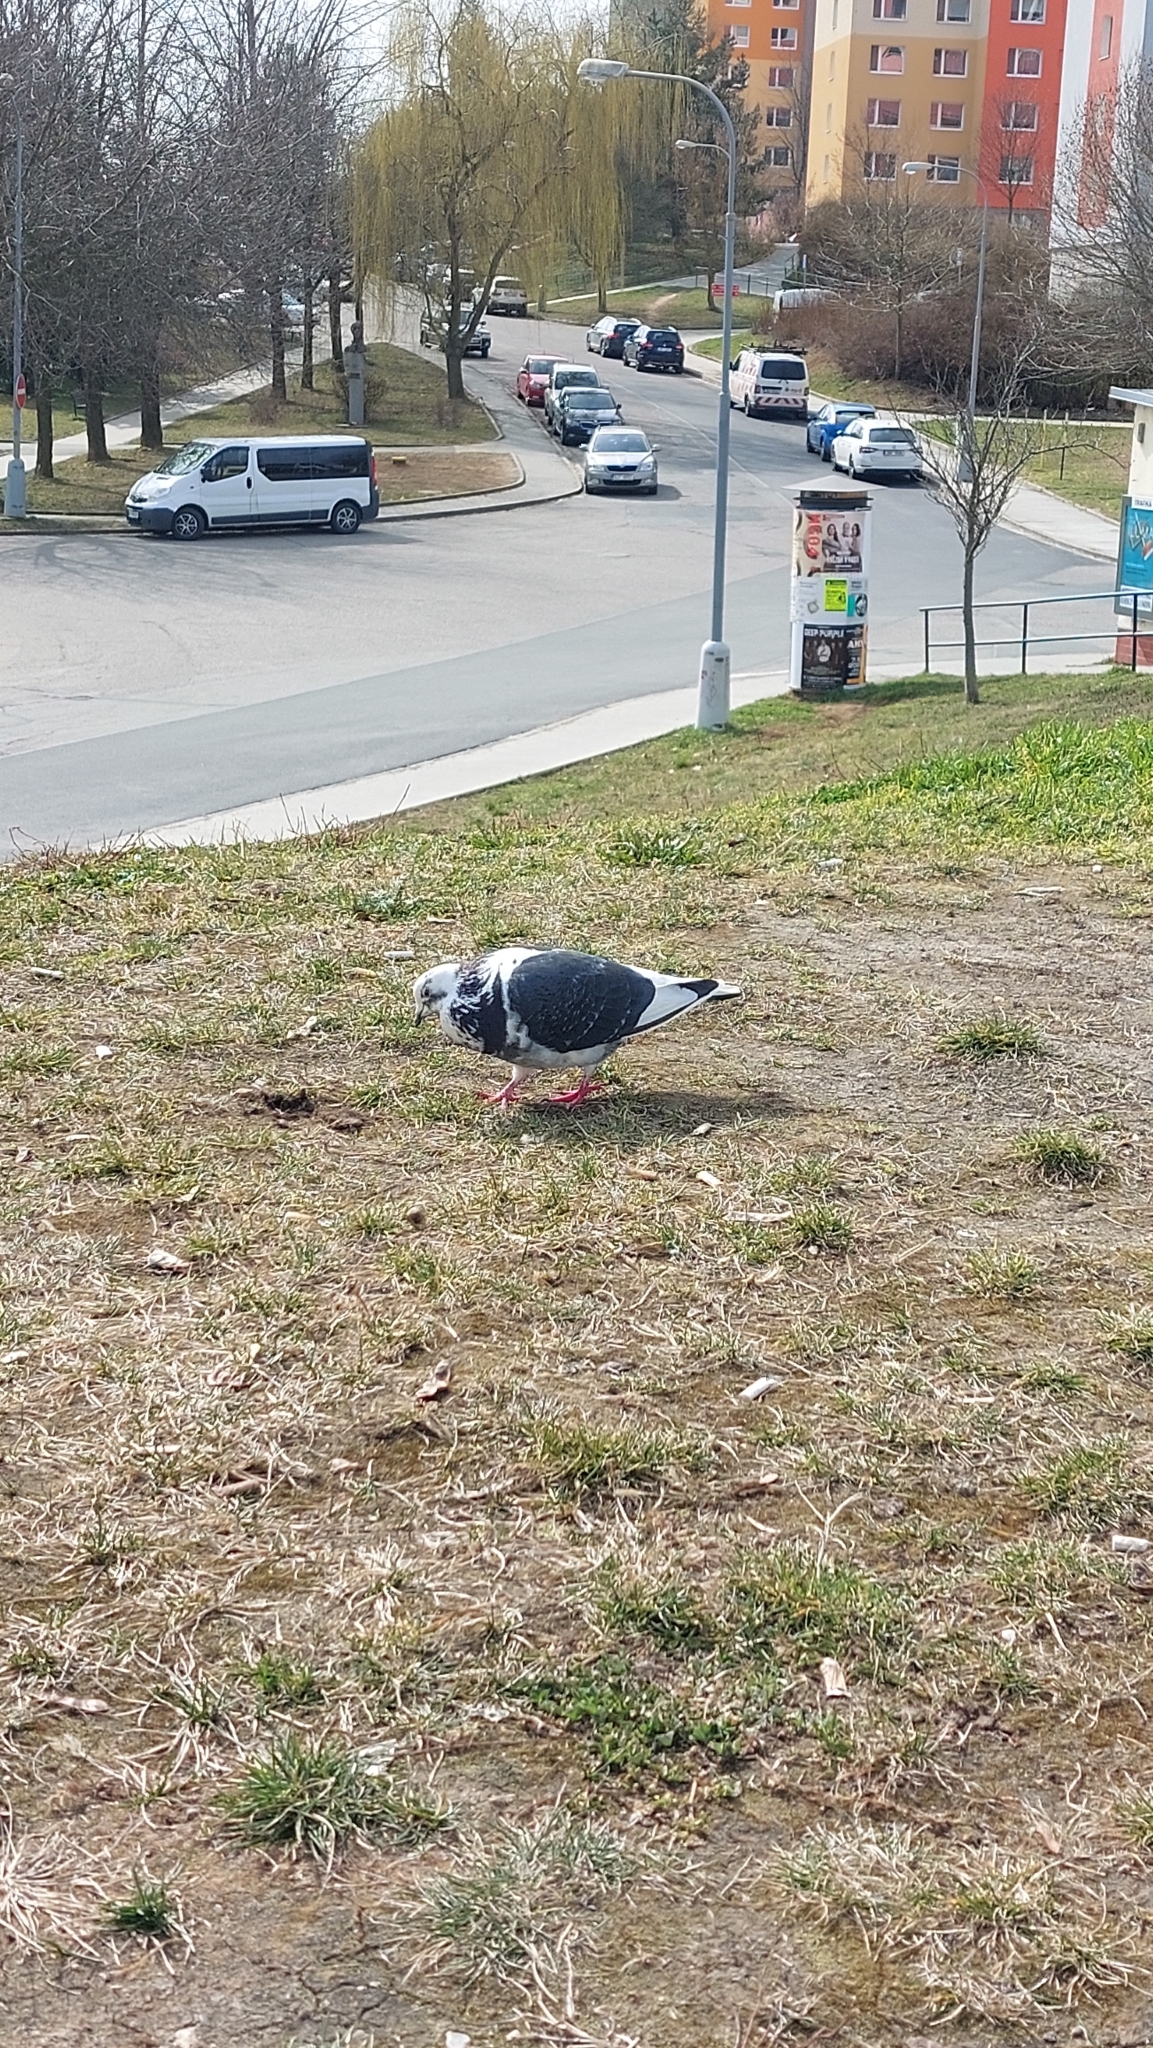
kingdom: Animalia
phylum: Chordata
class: Aves
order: Columbiformes
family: Columbidae
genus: Columba
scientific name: Columba livia
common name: Rock pigeon
